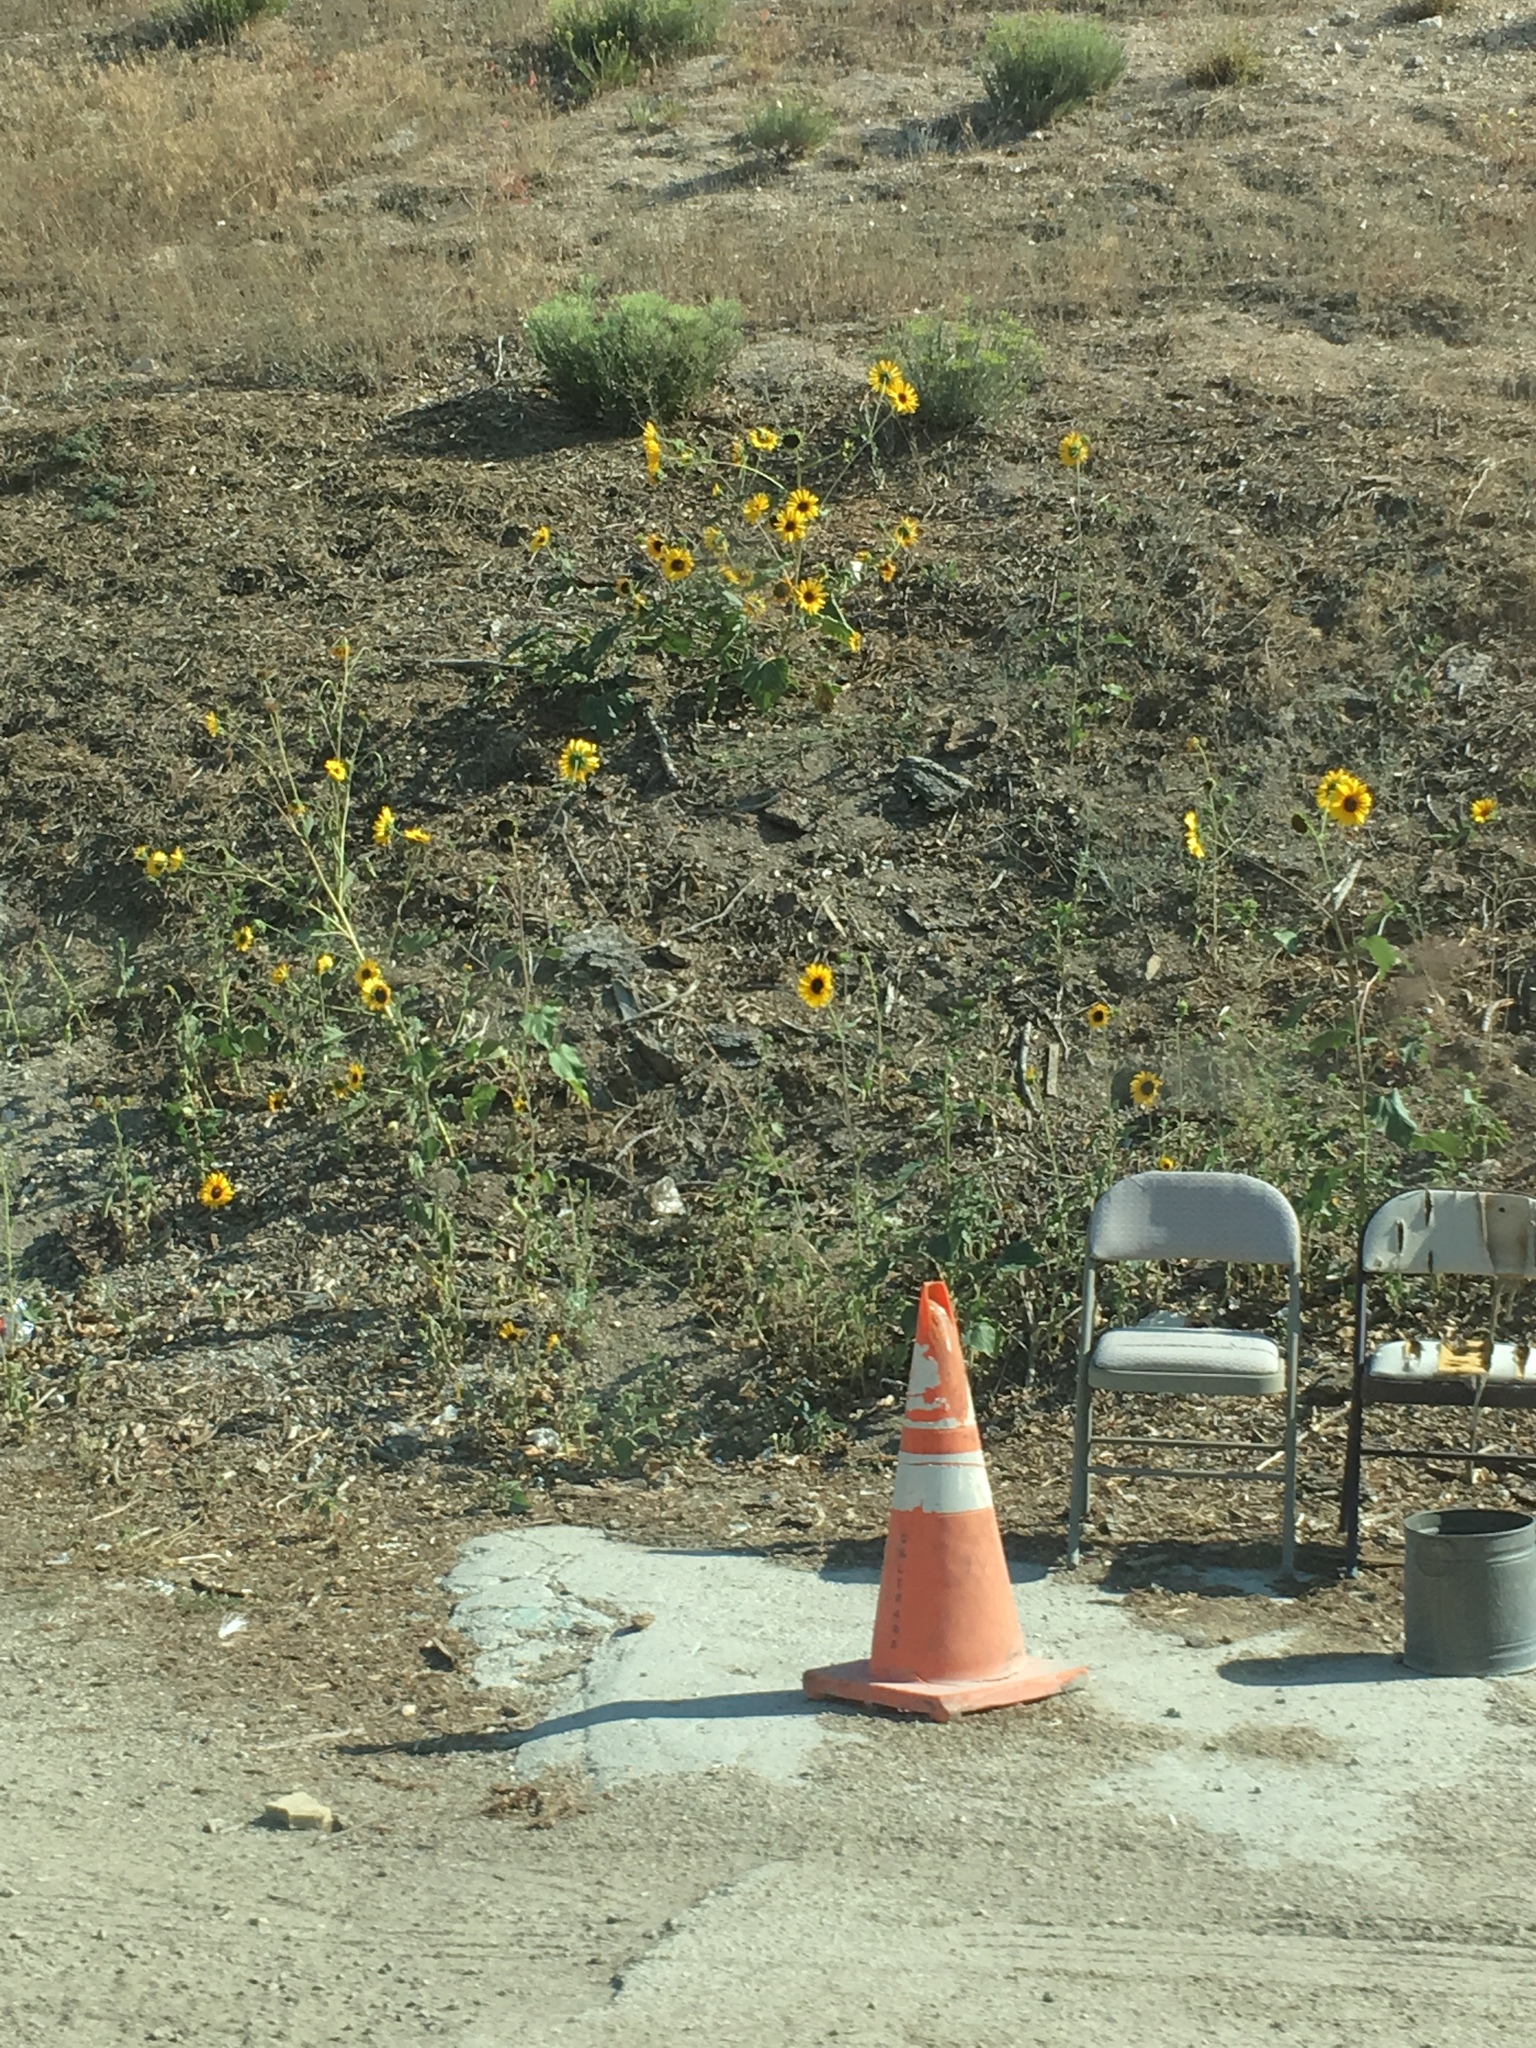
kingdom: Plantae
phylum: Tracheophyta
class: Magnoliopsida
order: Asterales
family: Asteraceae
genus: Helianthus
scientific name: Helianthus annuus
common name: Sunflower
